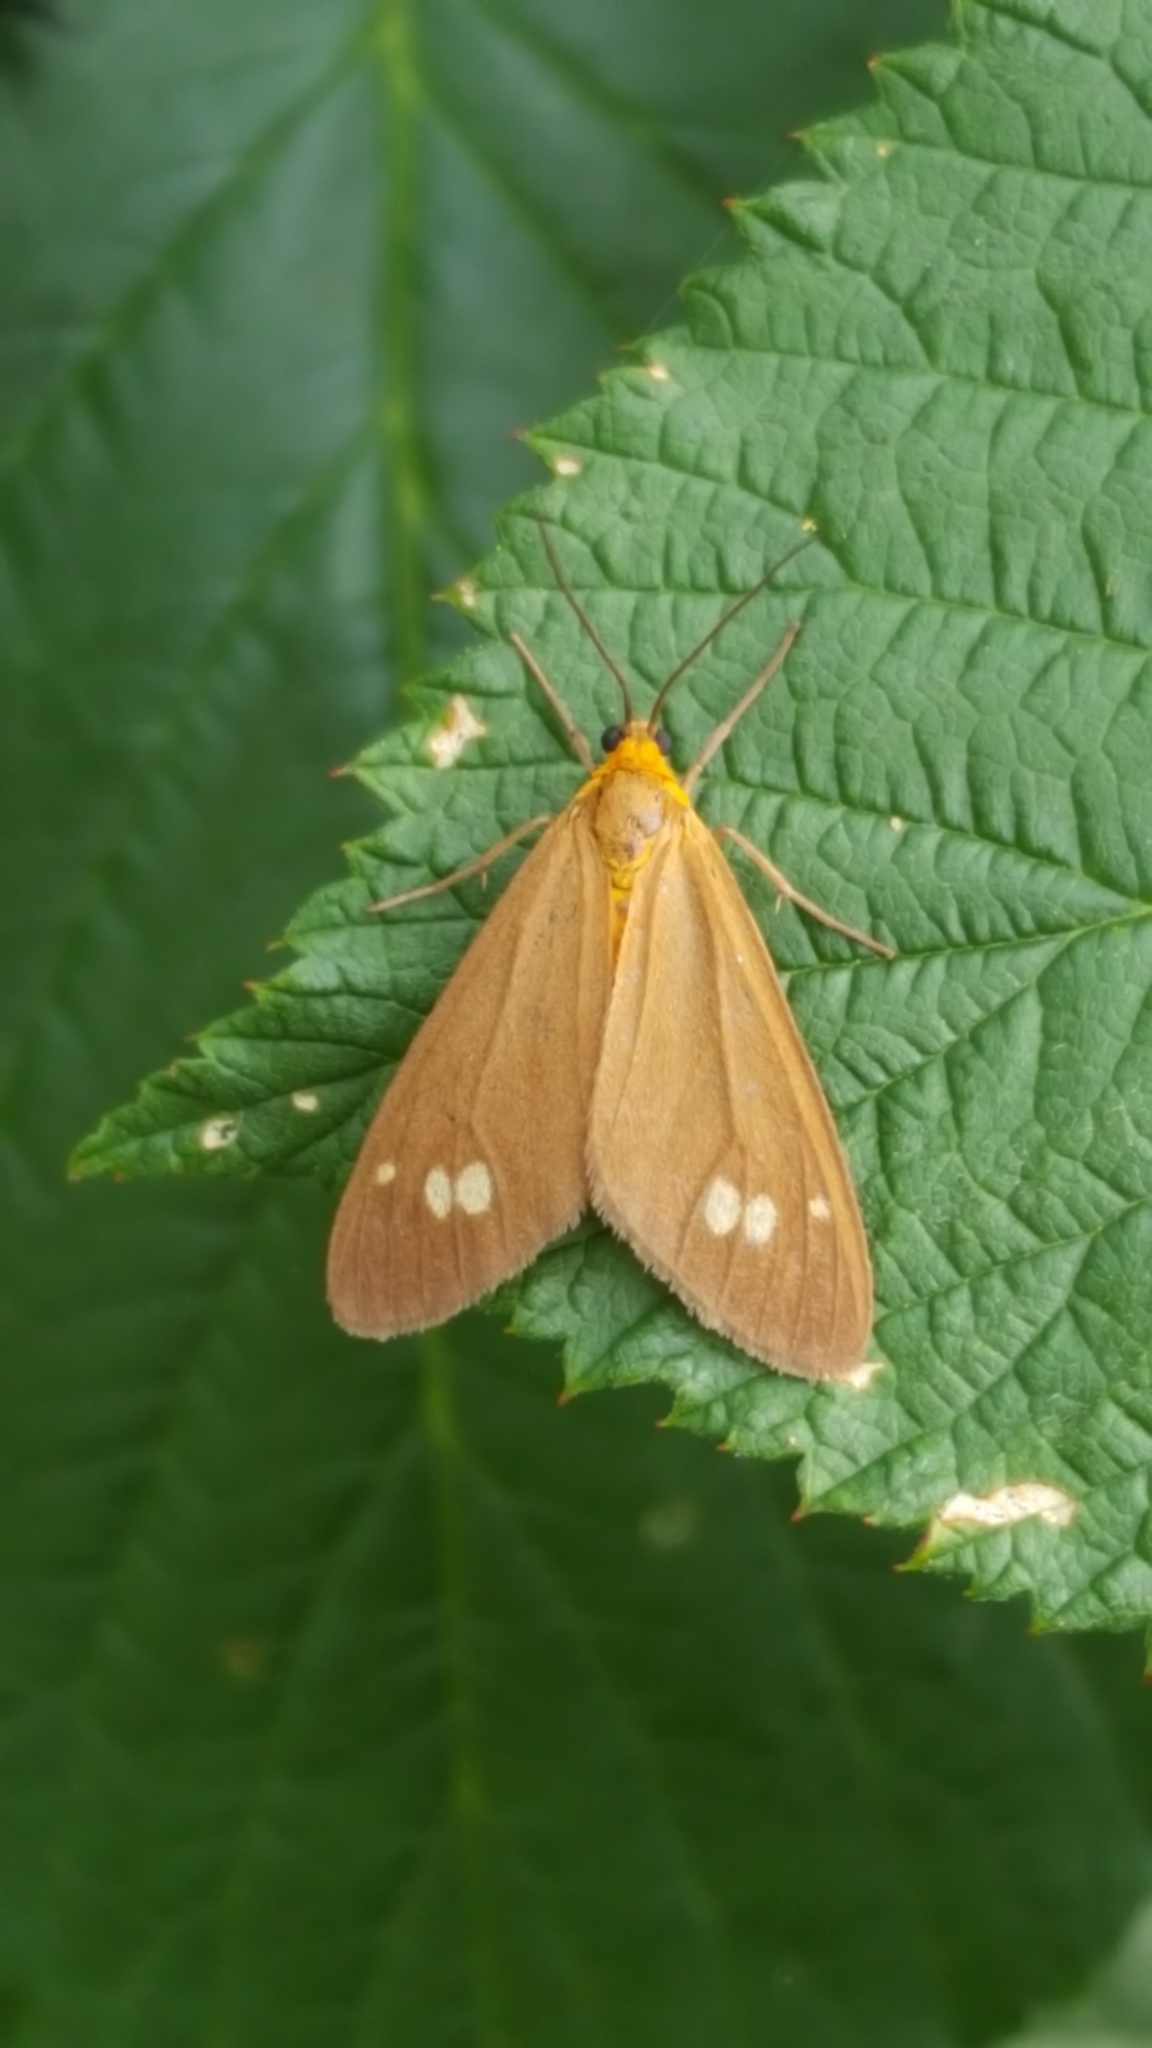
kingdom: Animalia
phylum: Arthropoda
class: Insecta
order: Lepidoptera
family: Erebidae
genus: Dysauxes
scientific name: Dysauxes ancilla
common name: The handmaid
